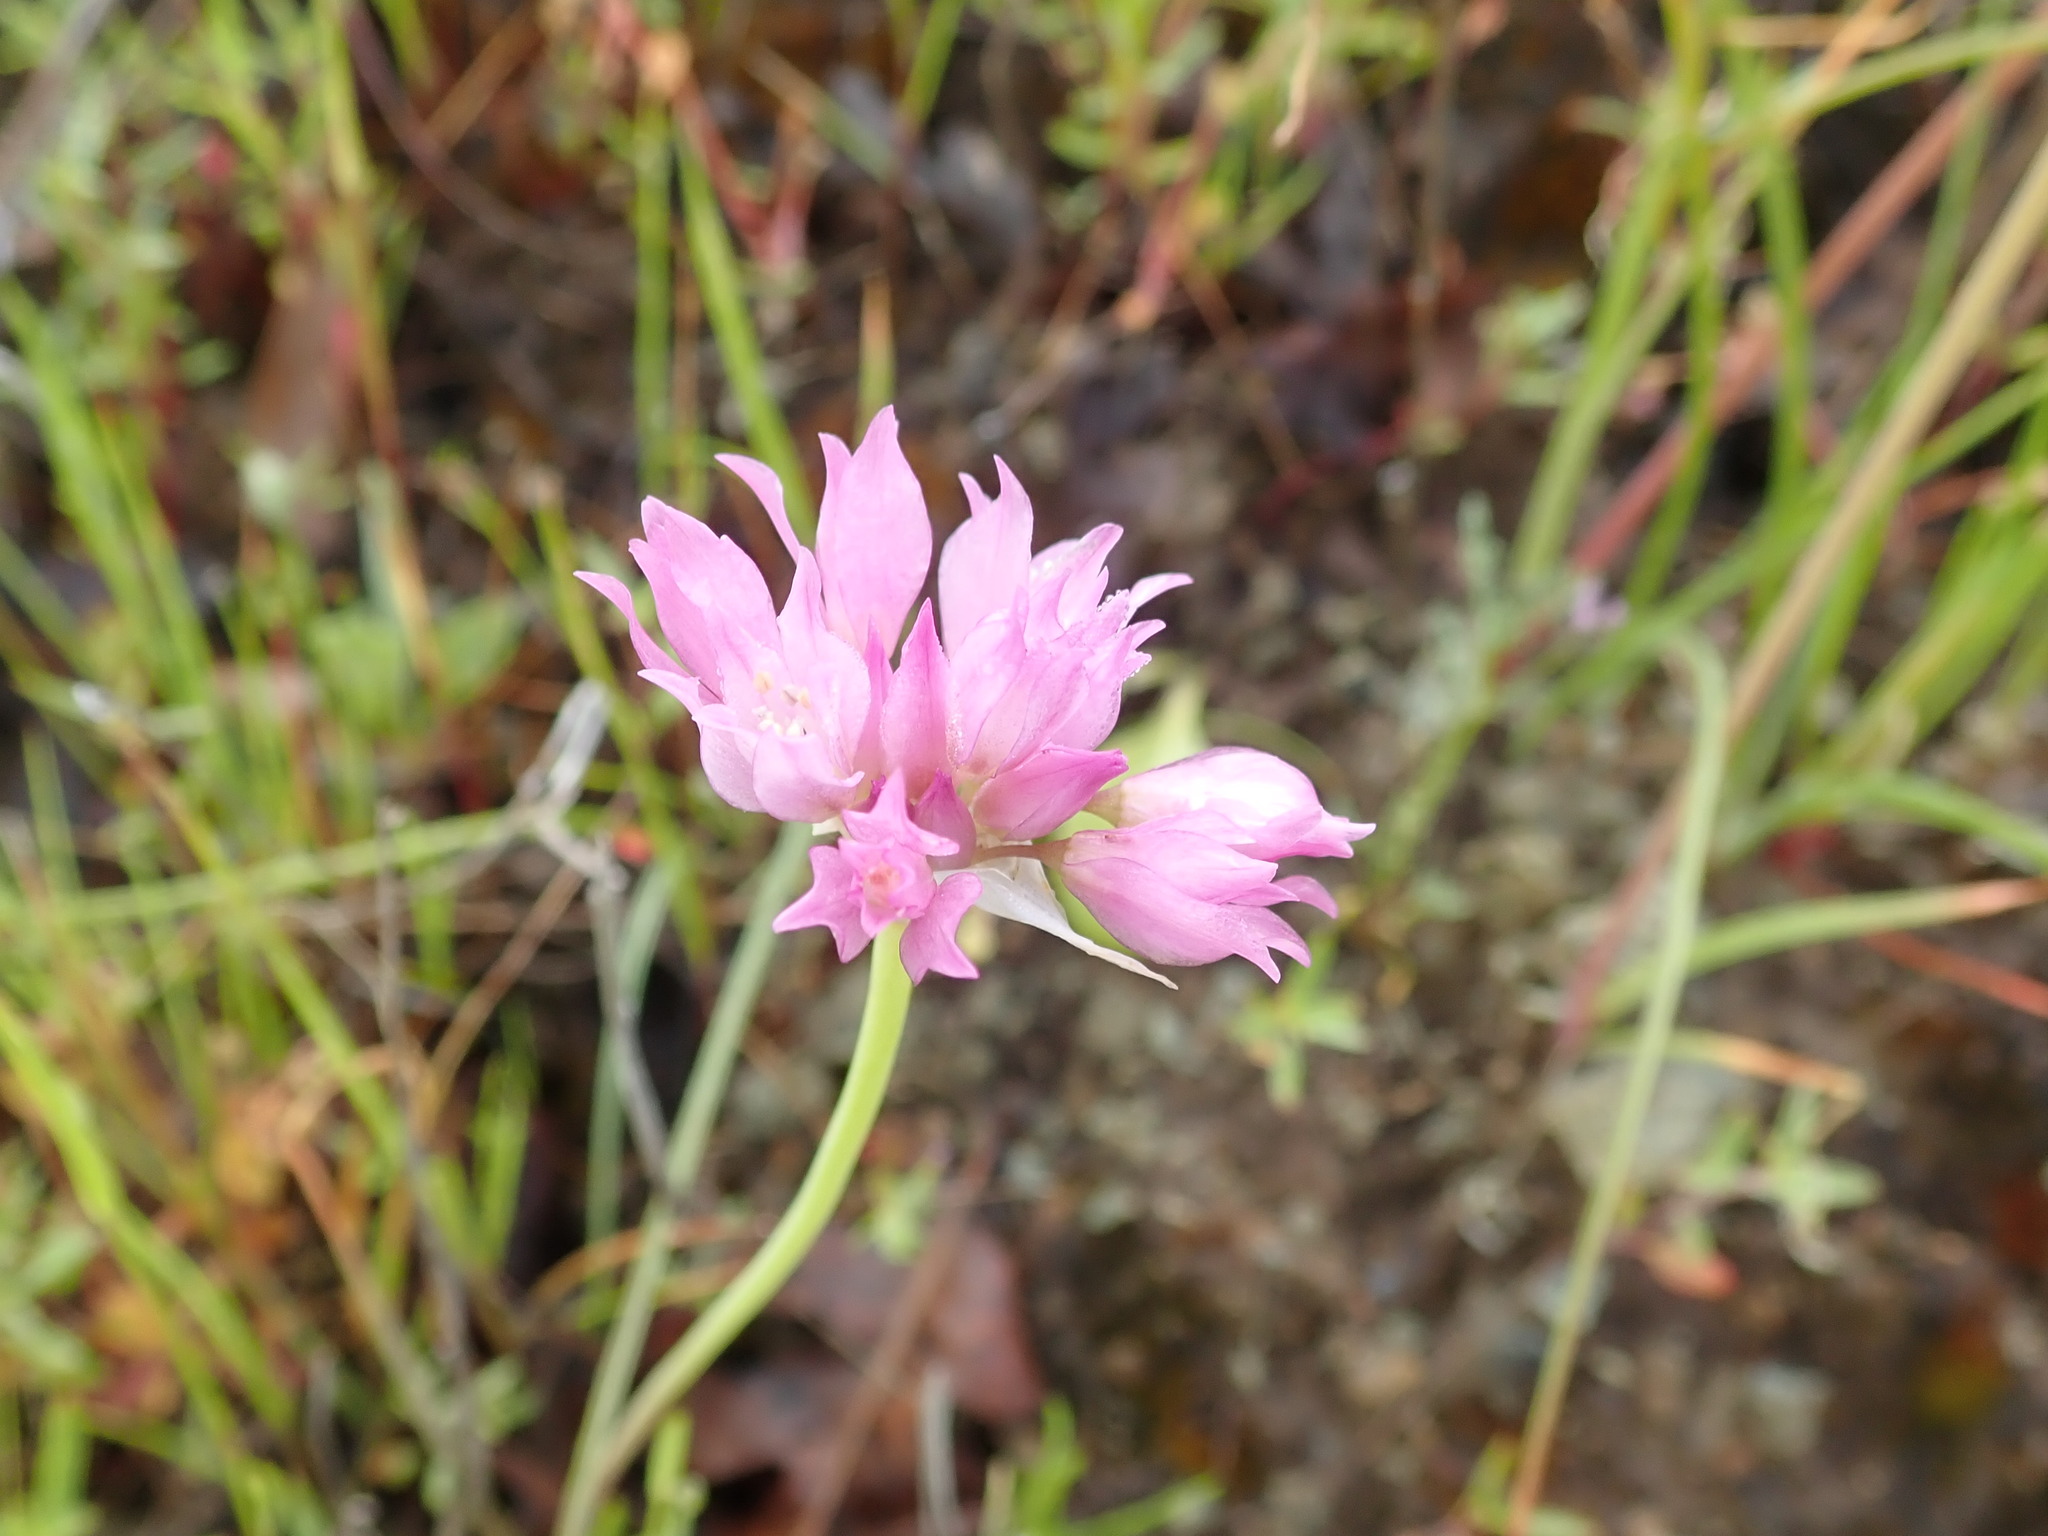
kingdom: Plantae
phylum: Tracheophyta
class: Liliopsida
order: Asparagales
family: Amaryllidaceae
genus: Allium
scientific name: Allium serra
